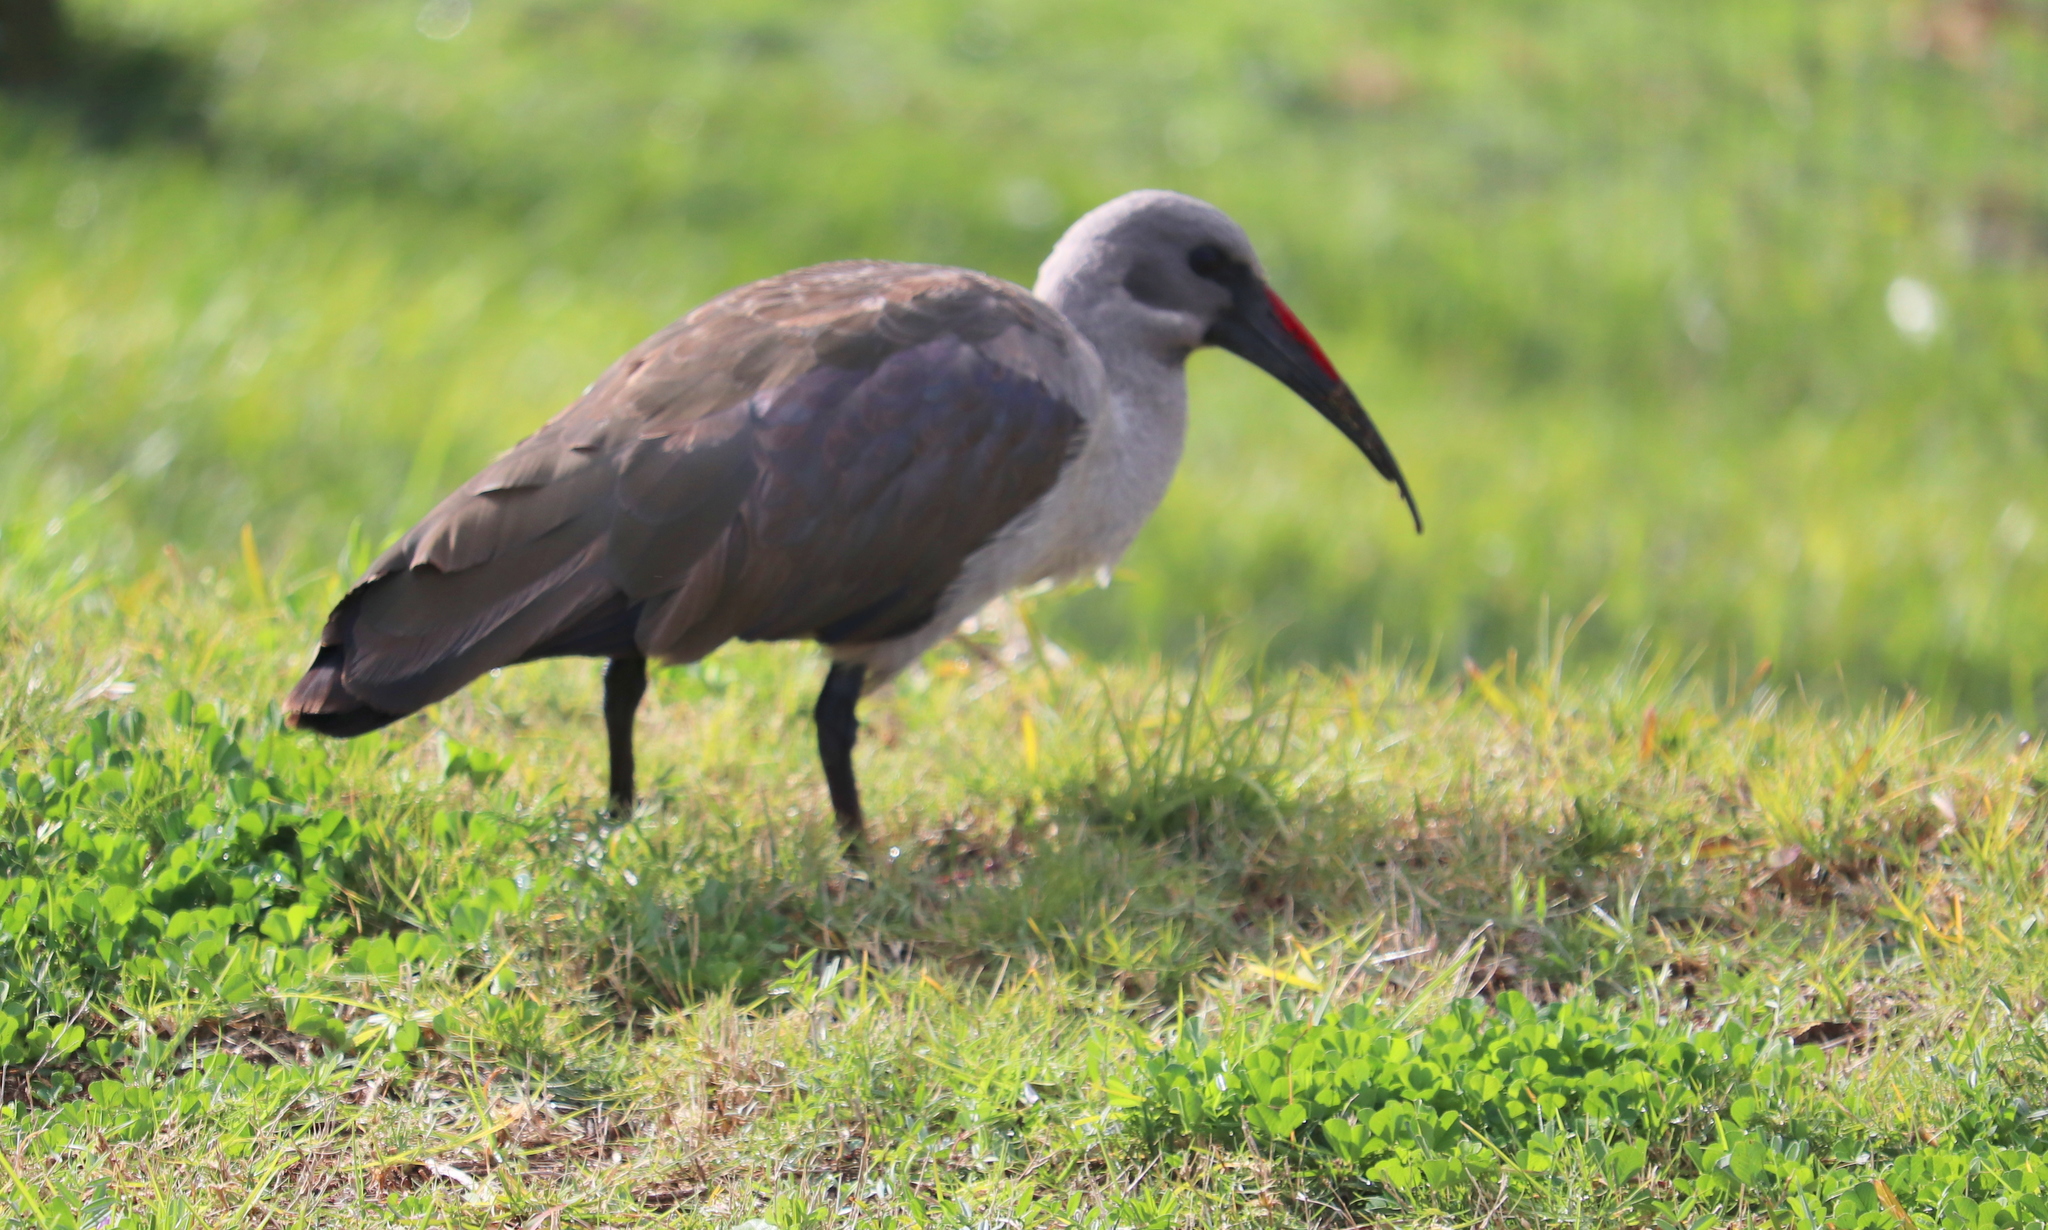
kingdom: Animalia
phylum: Chordata
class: Aves
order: Pelecaniformes
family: Threskiornithidae
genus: Bostrychia
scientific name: Bostrychia hagedash
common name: Hadada ibis
